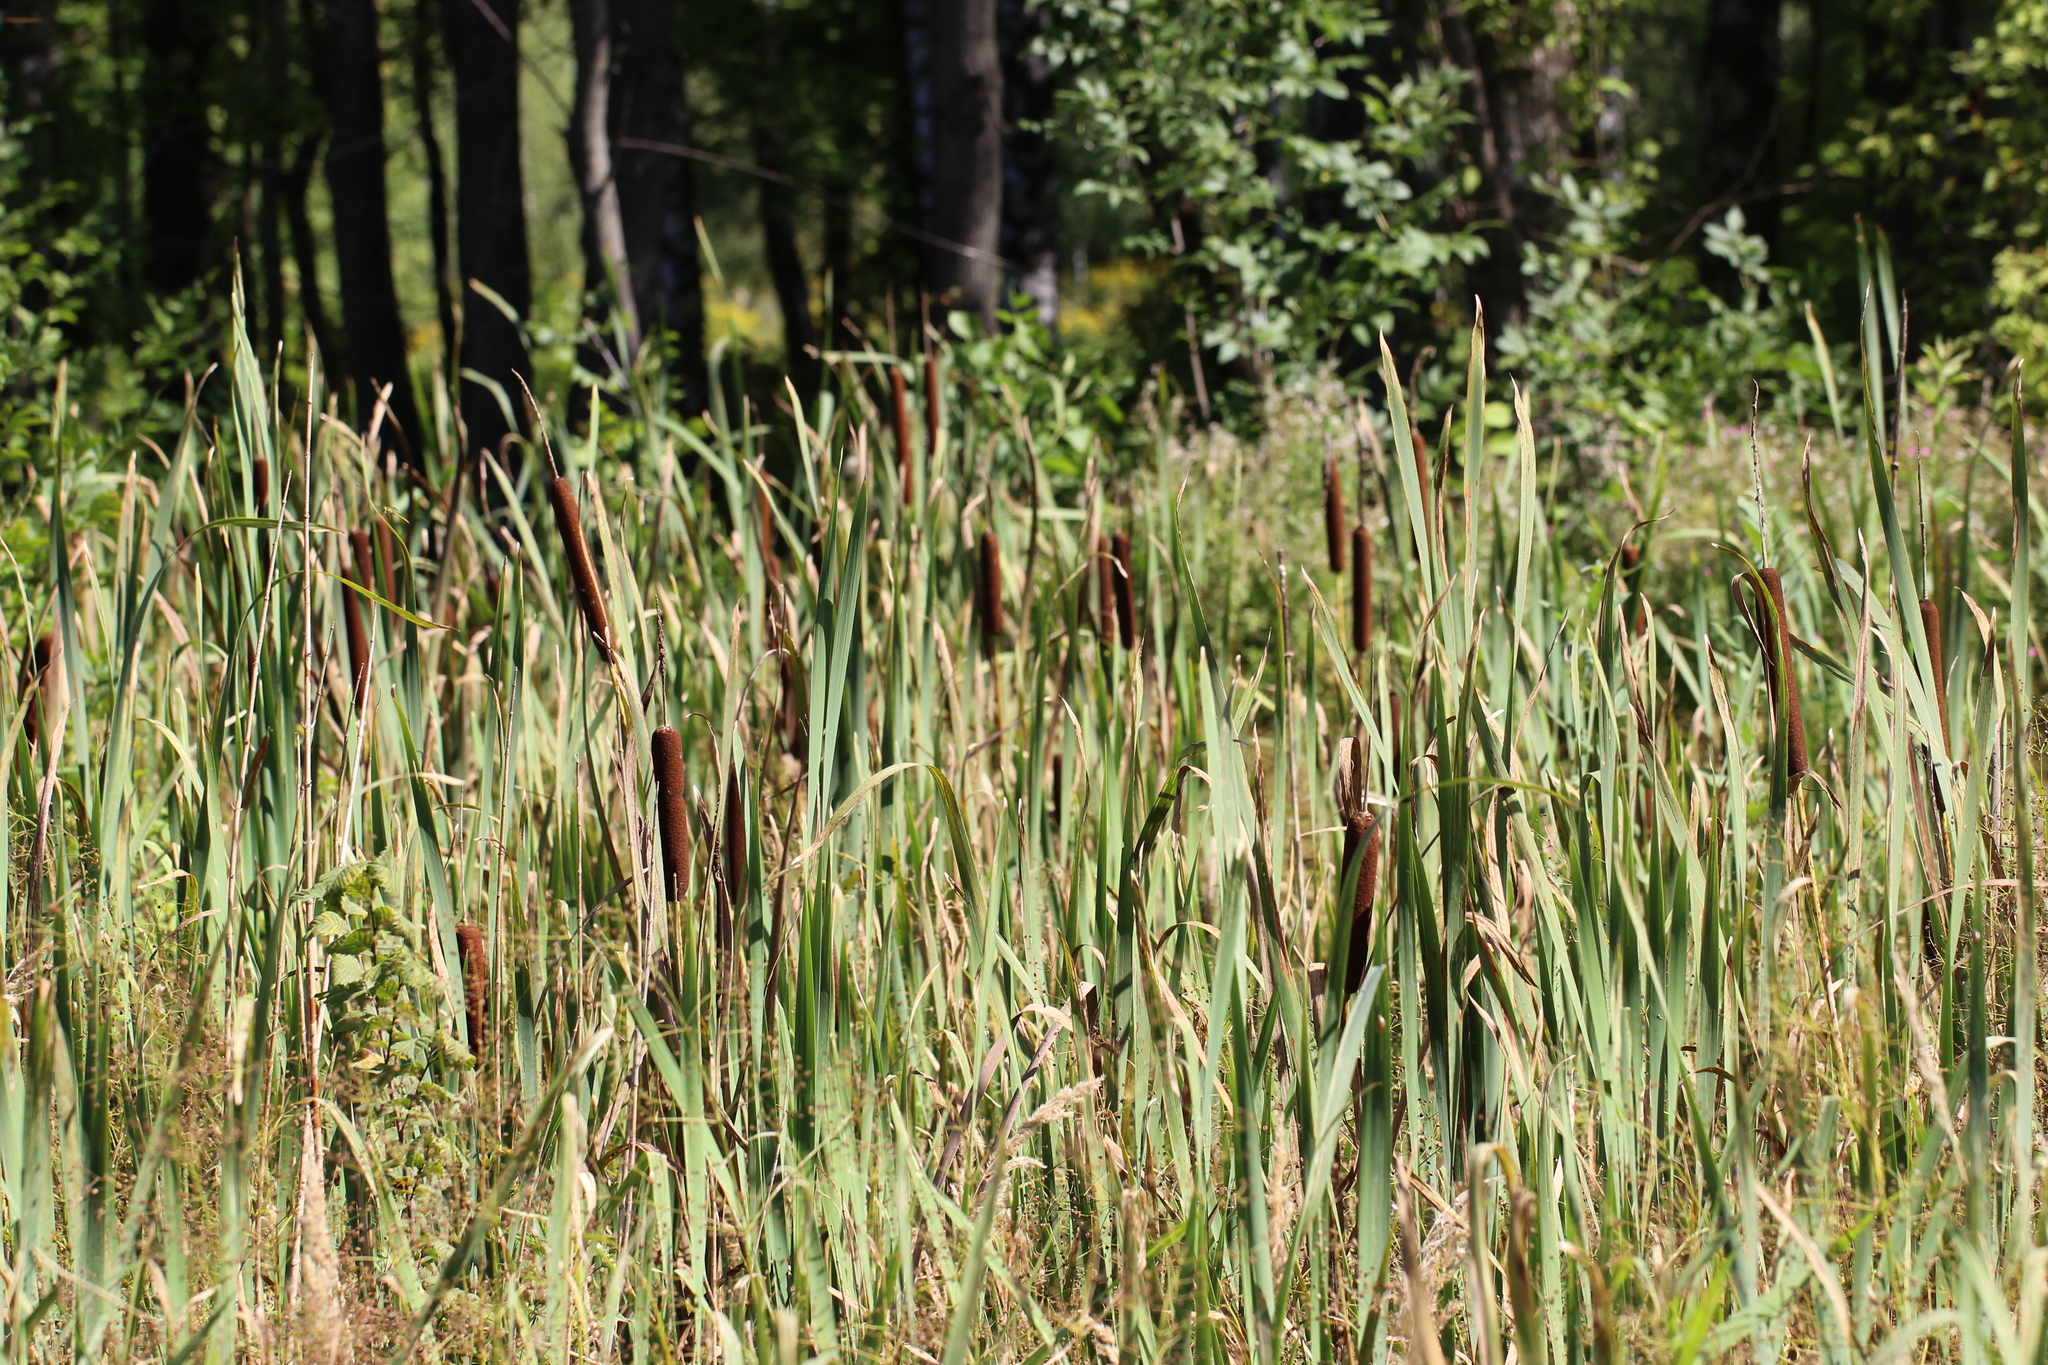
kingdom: Plantae
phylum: Tracheophyta
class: Liliopsida
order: Poales
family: Typhaceae
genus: Typha
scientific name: Typha latifolia
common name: Broadleaf cattail
